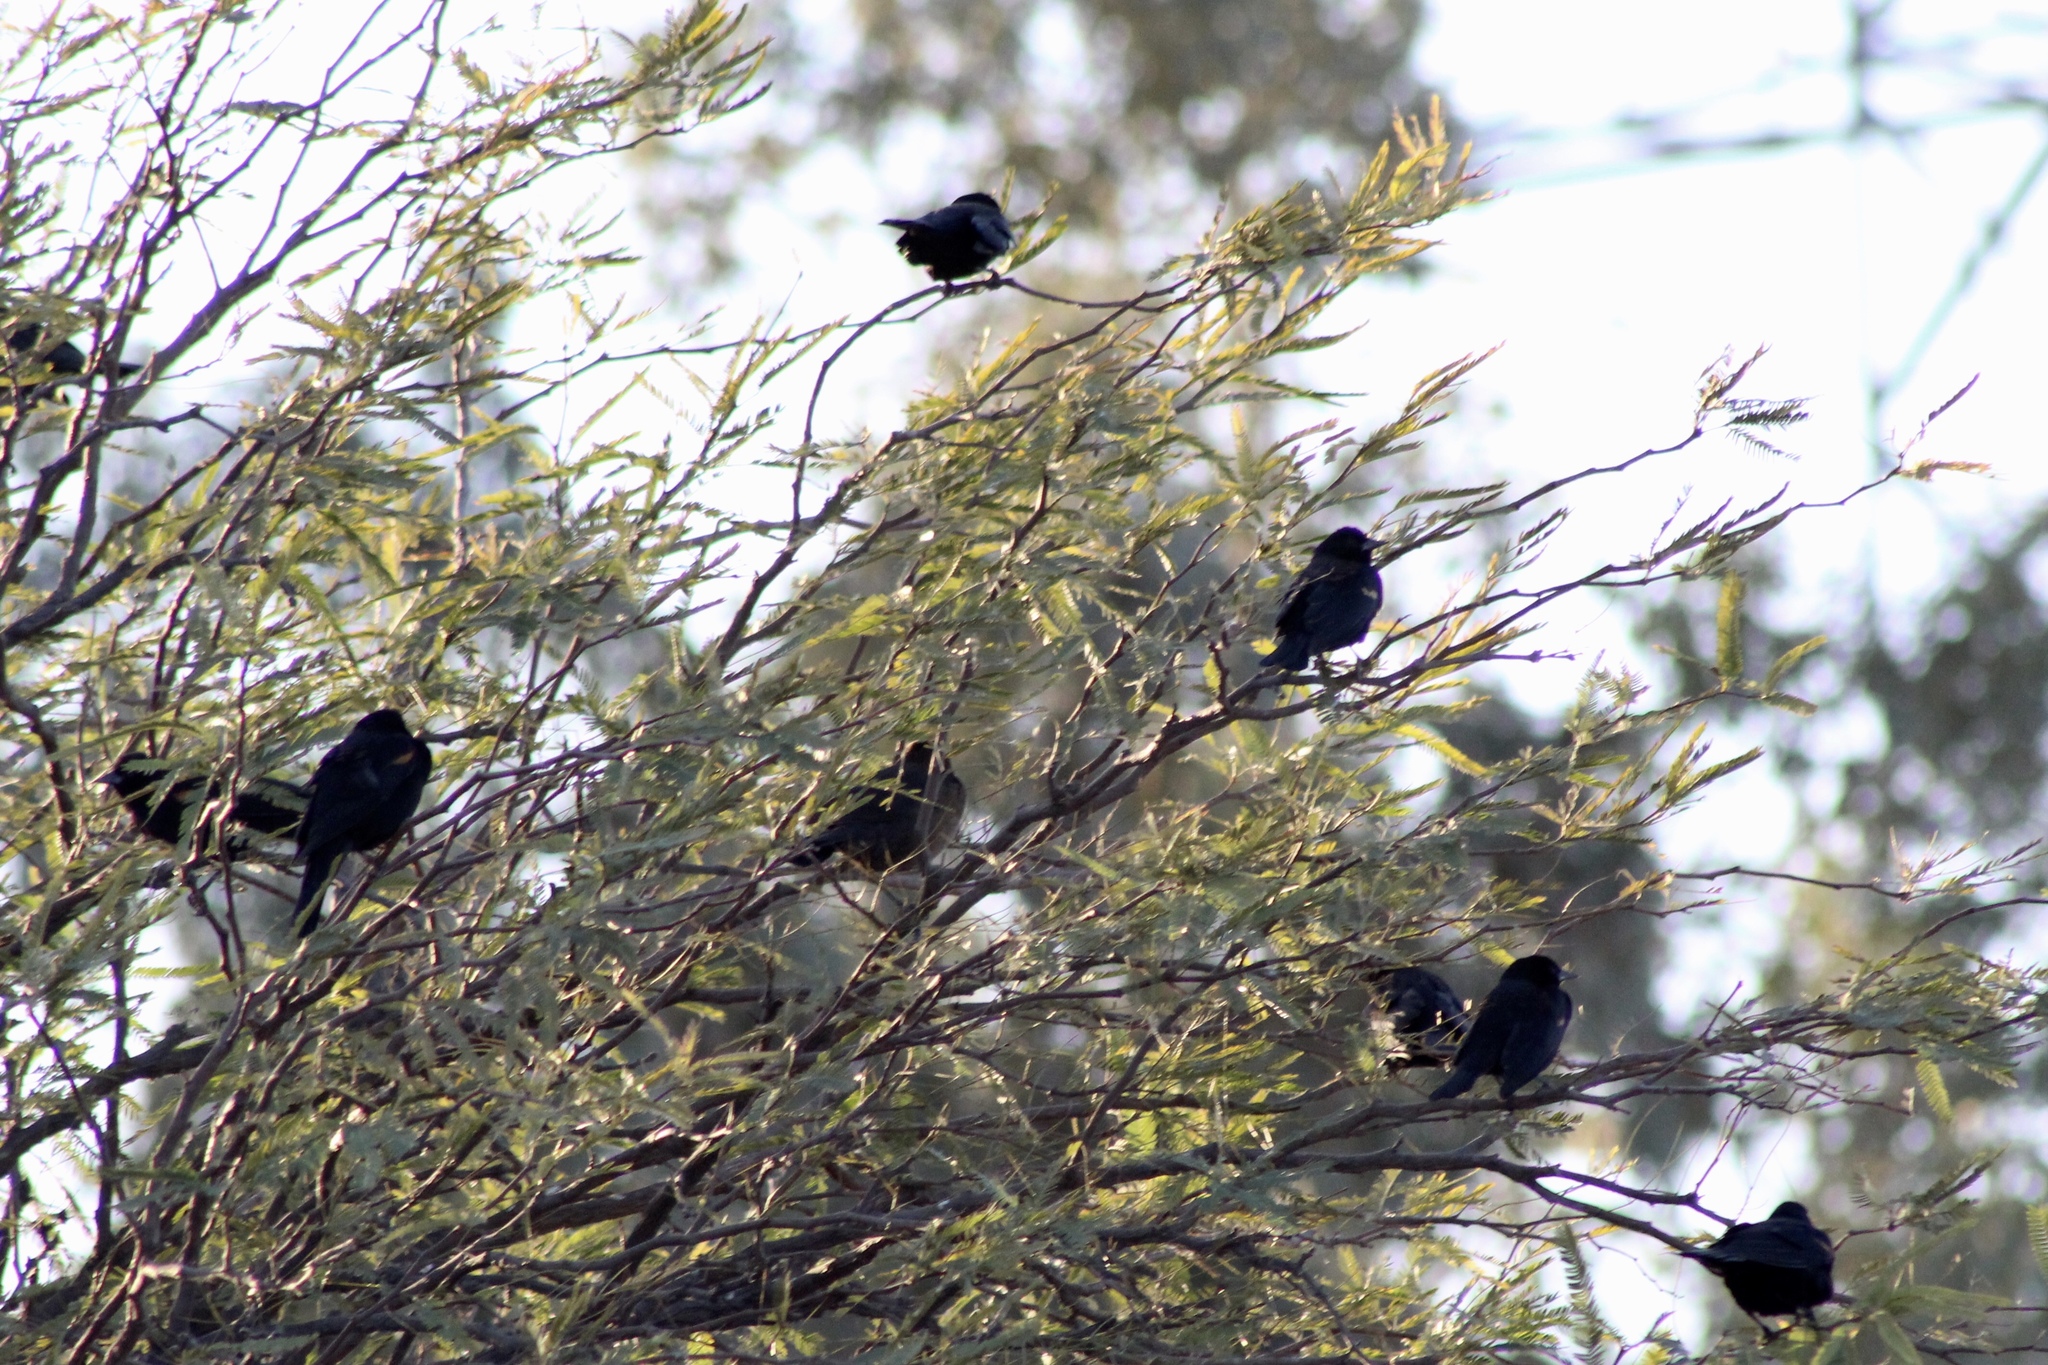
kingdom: Animalia
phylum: Chordata
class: Aves
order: Passeriformes
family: Icteridae
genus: Agelaius
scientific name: Agelaius phoeniceus
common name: Red-winged blackbird
